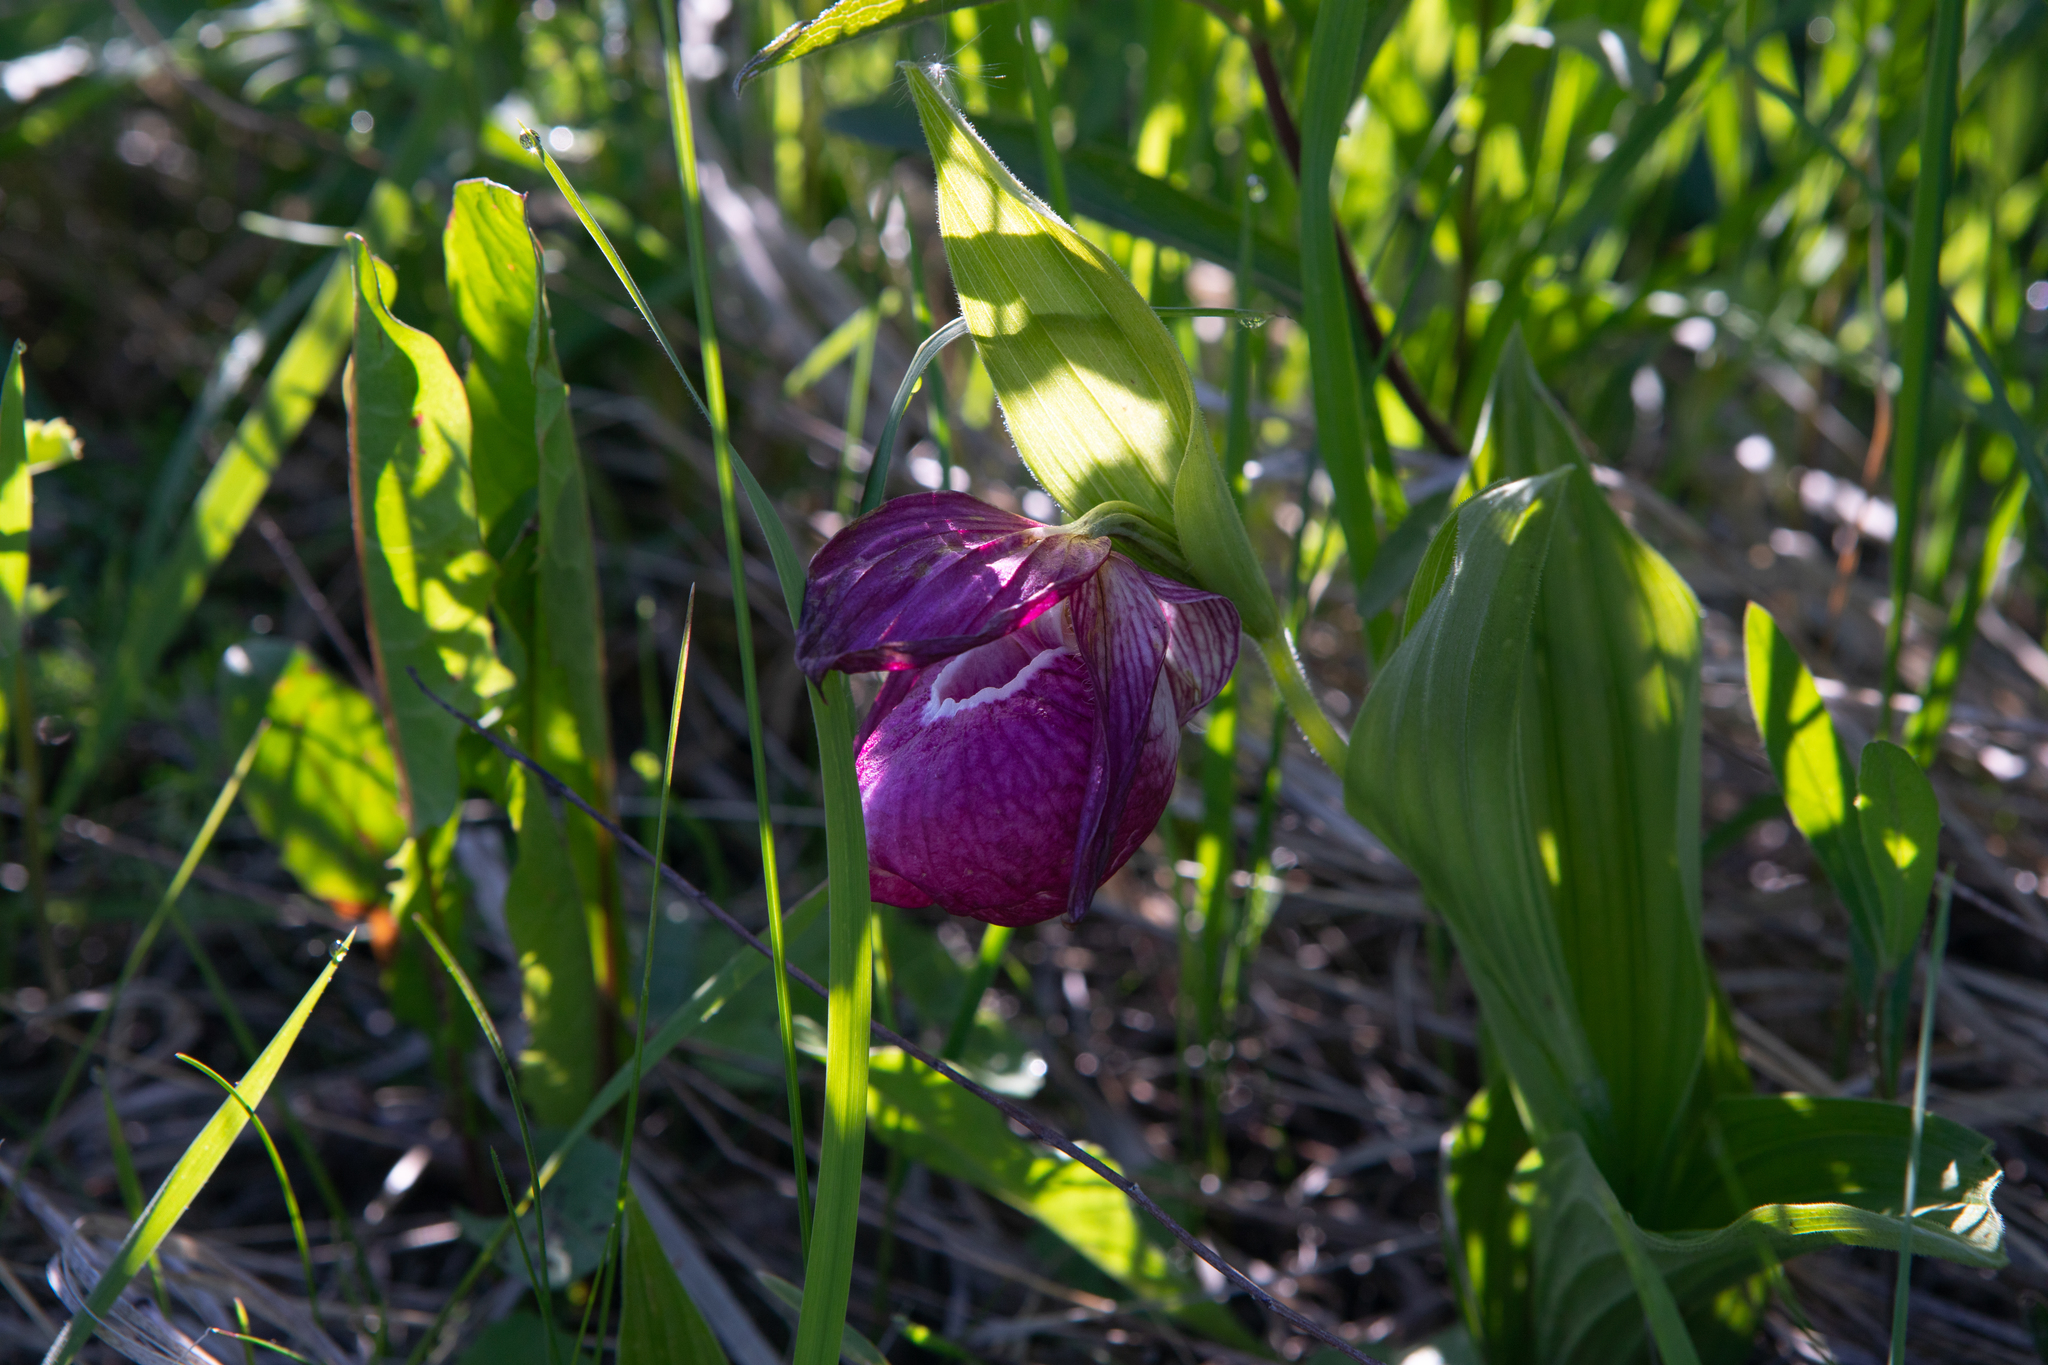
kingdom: Plantae
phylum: Tracheophyta
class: Liliopsida
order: Asparagales
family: Orchidaceae
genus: Cypripedium
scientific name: Cypripedium macranthos
